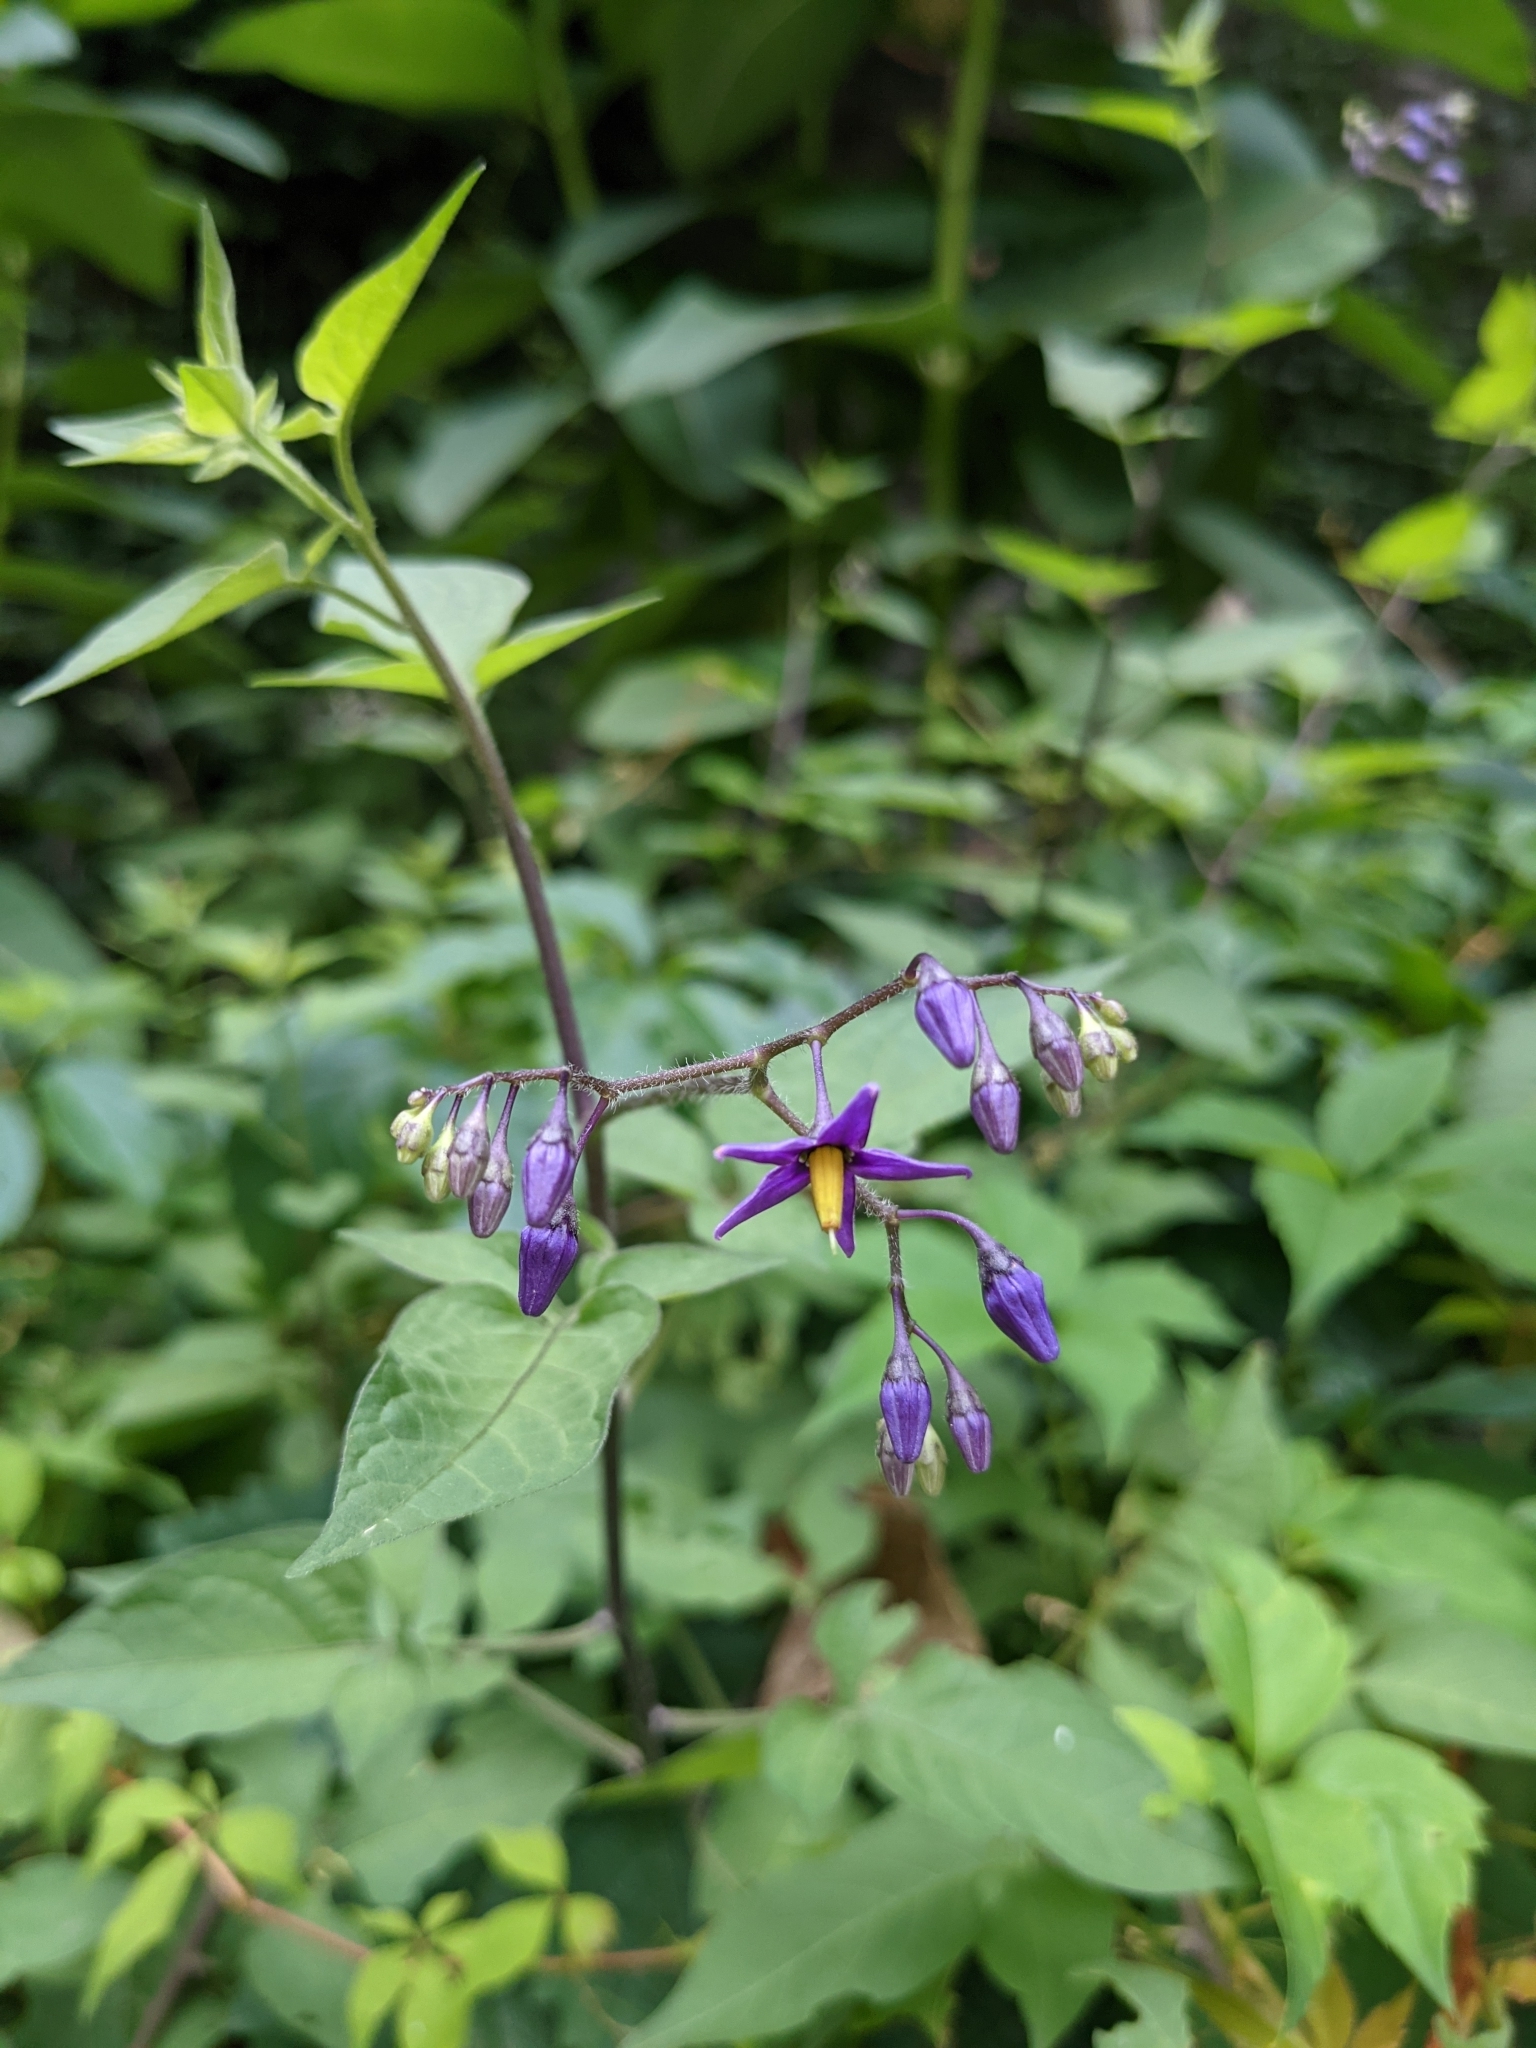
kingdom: Plantae
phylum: Tracheophyta
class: Magnoliopsida
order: Solanales
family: Solanaceae
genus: Solanum
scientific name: Solanum dulcamara
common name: Climbing nightshade
